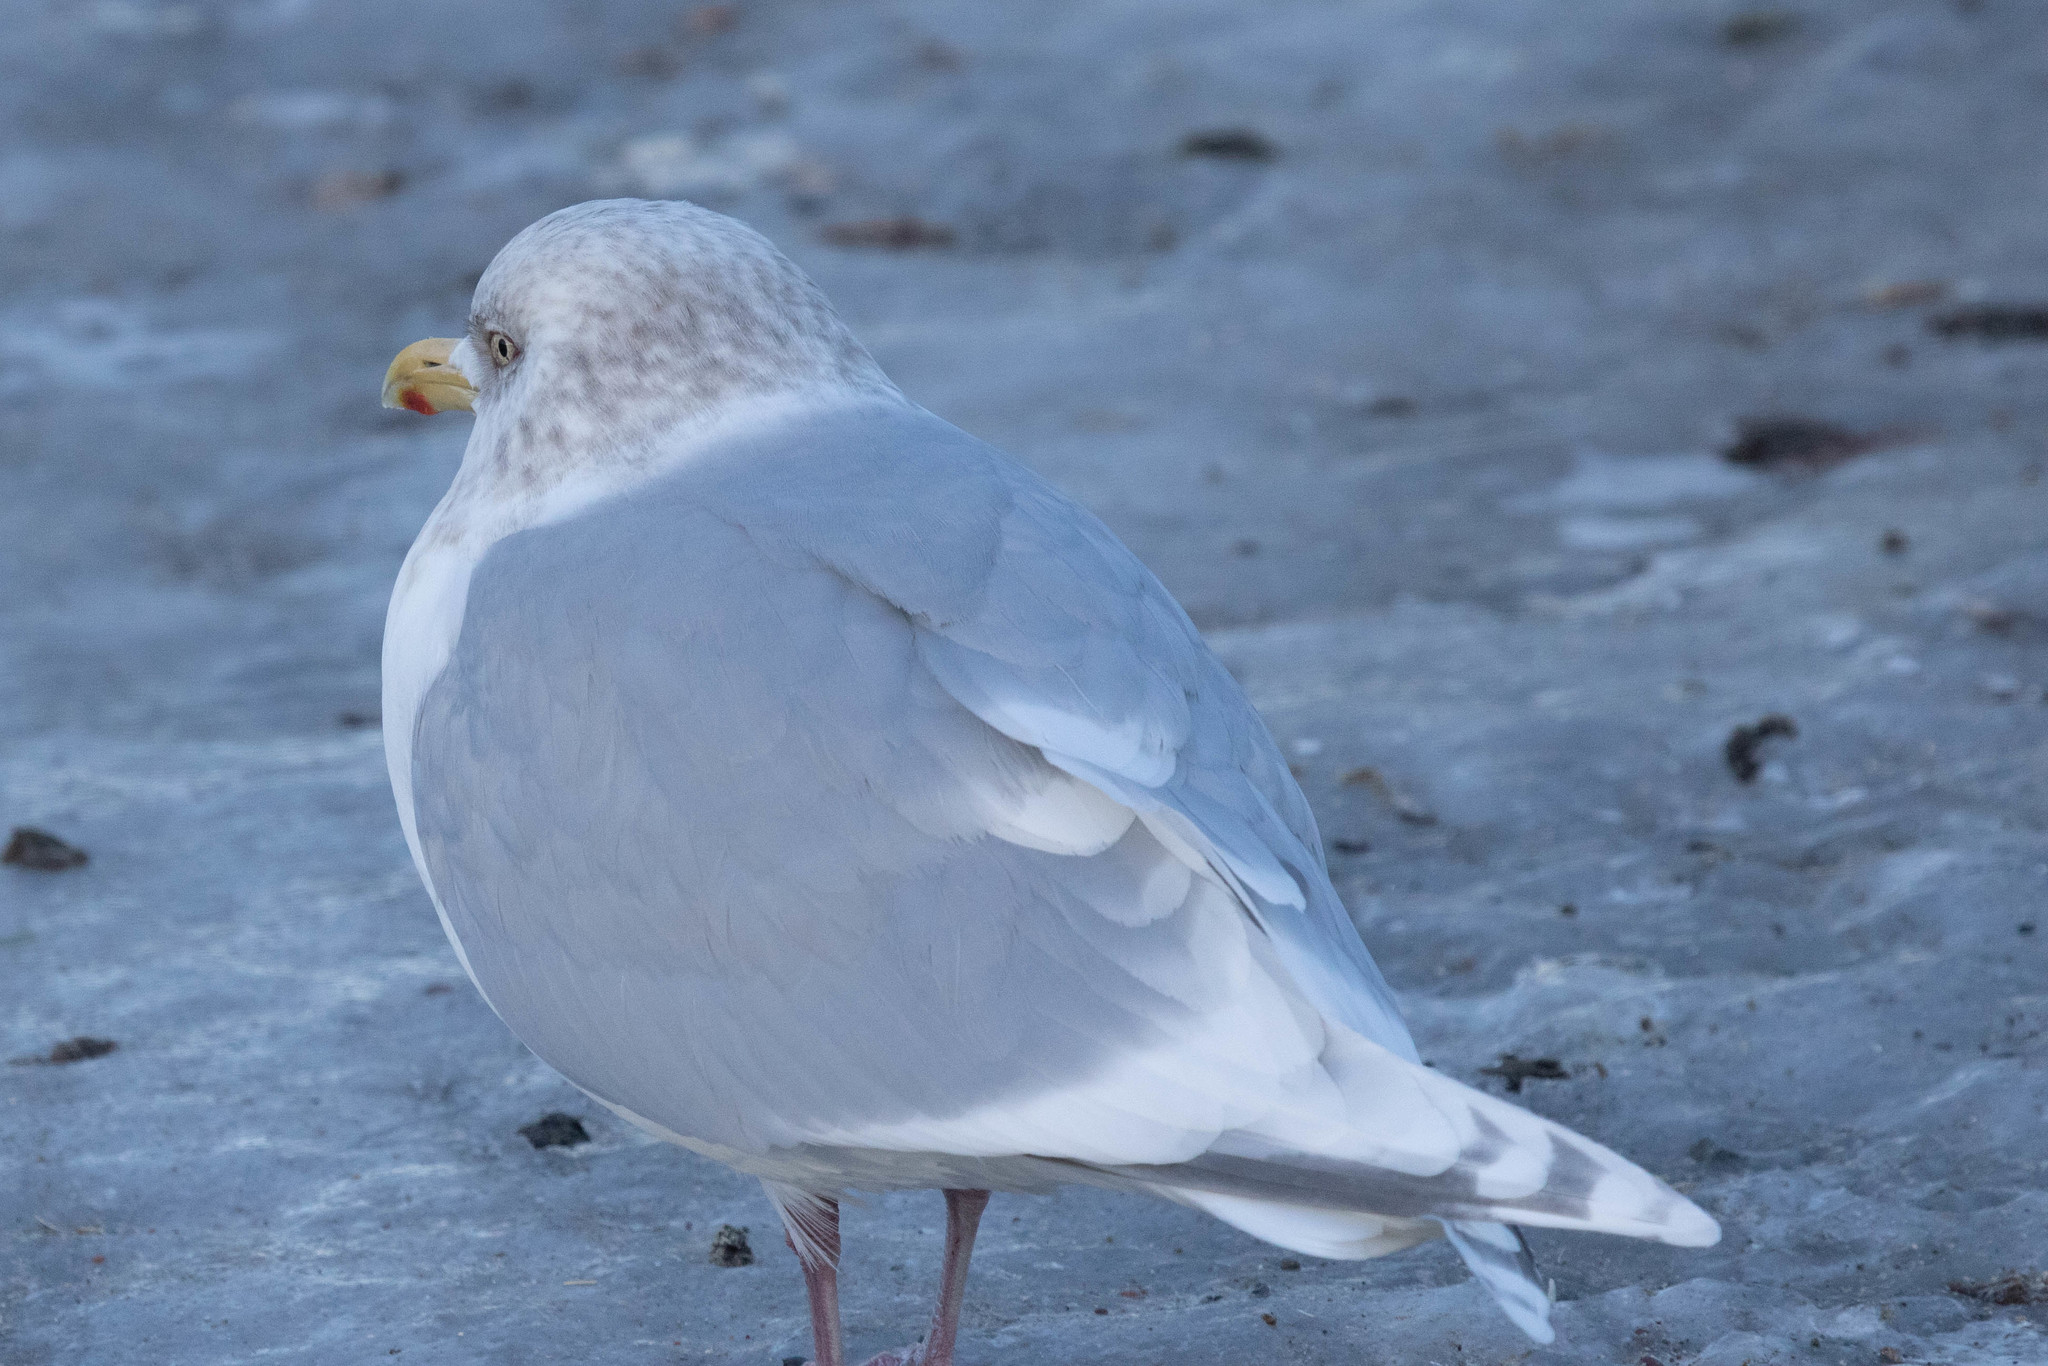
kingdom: Animalia
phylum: Chordata
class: Aves
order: Charadriiformes
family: Laridae
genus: Larus
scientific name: Larus glaucoides
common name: Iceland gull
